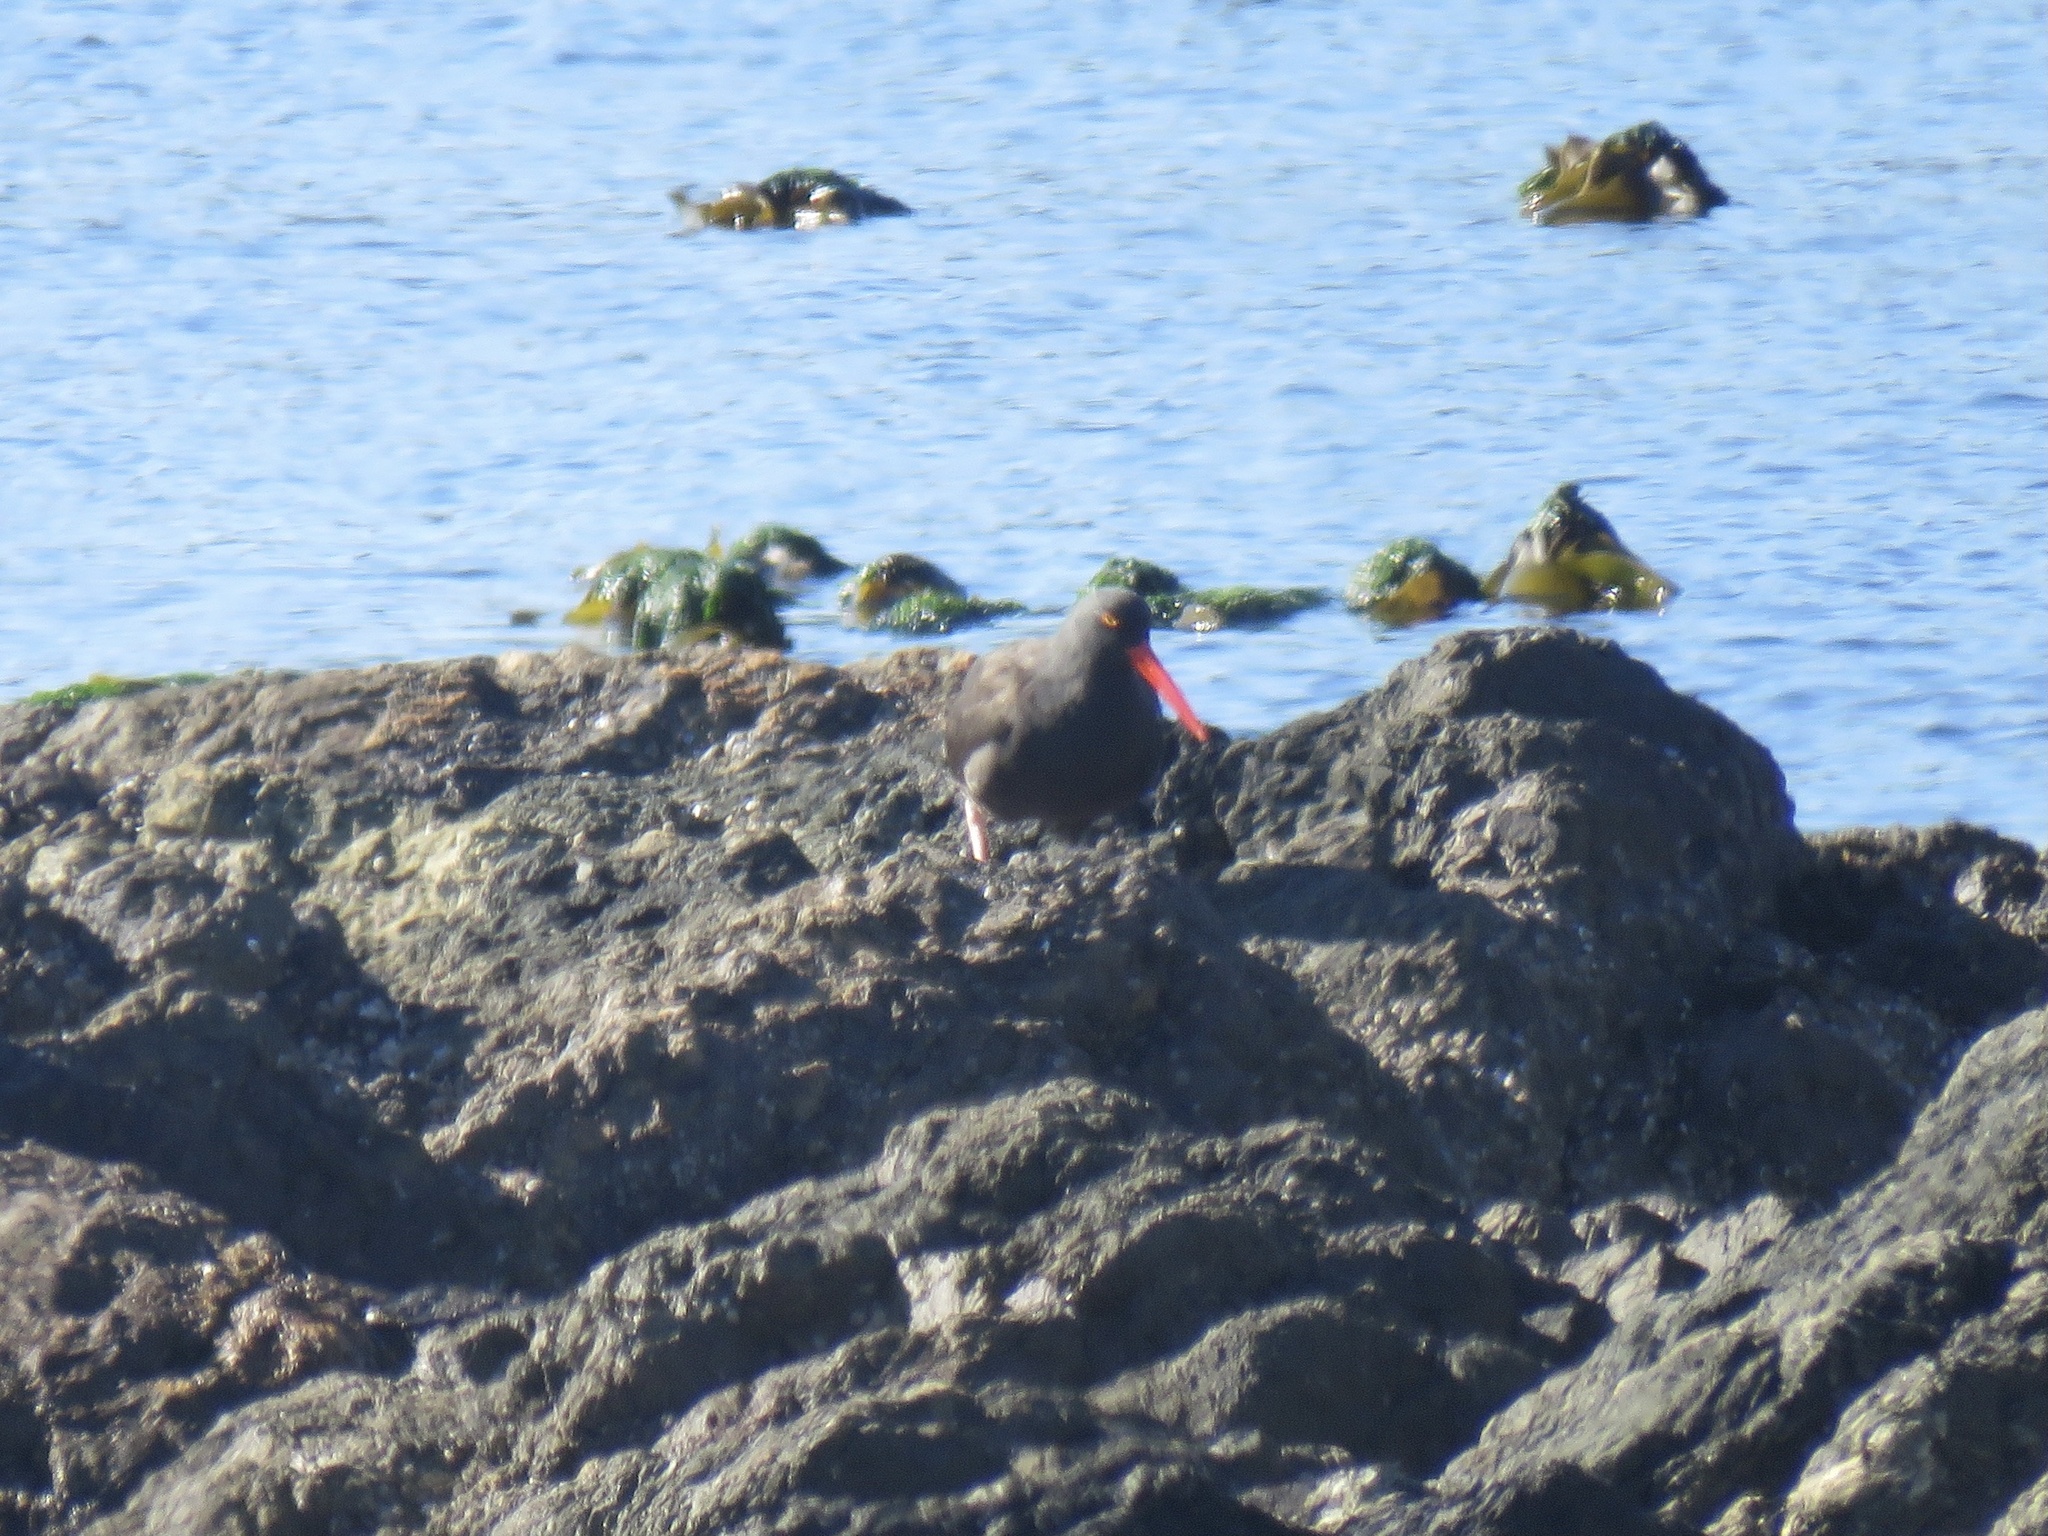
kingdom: Animalia
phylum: Chordata
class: Aves
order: Charadriiformes
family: Haematopodidae
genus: Haematopus
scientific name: Haematopus bachmani
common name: Black oystercatcher
